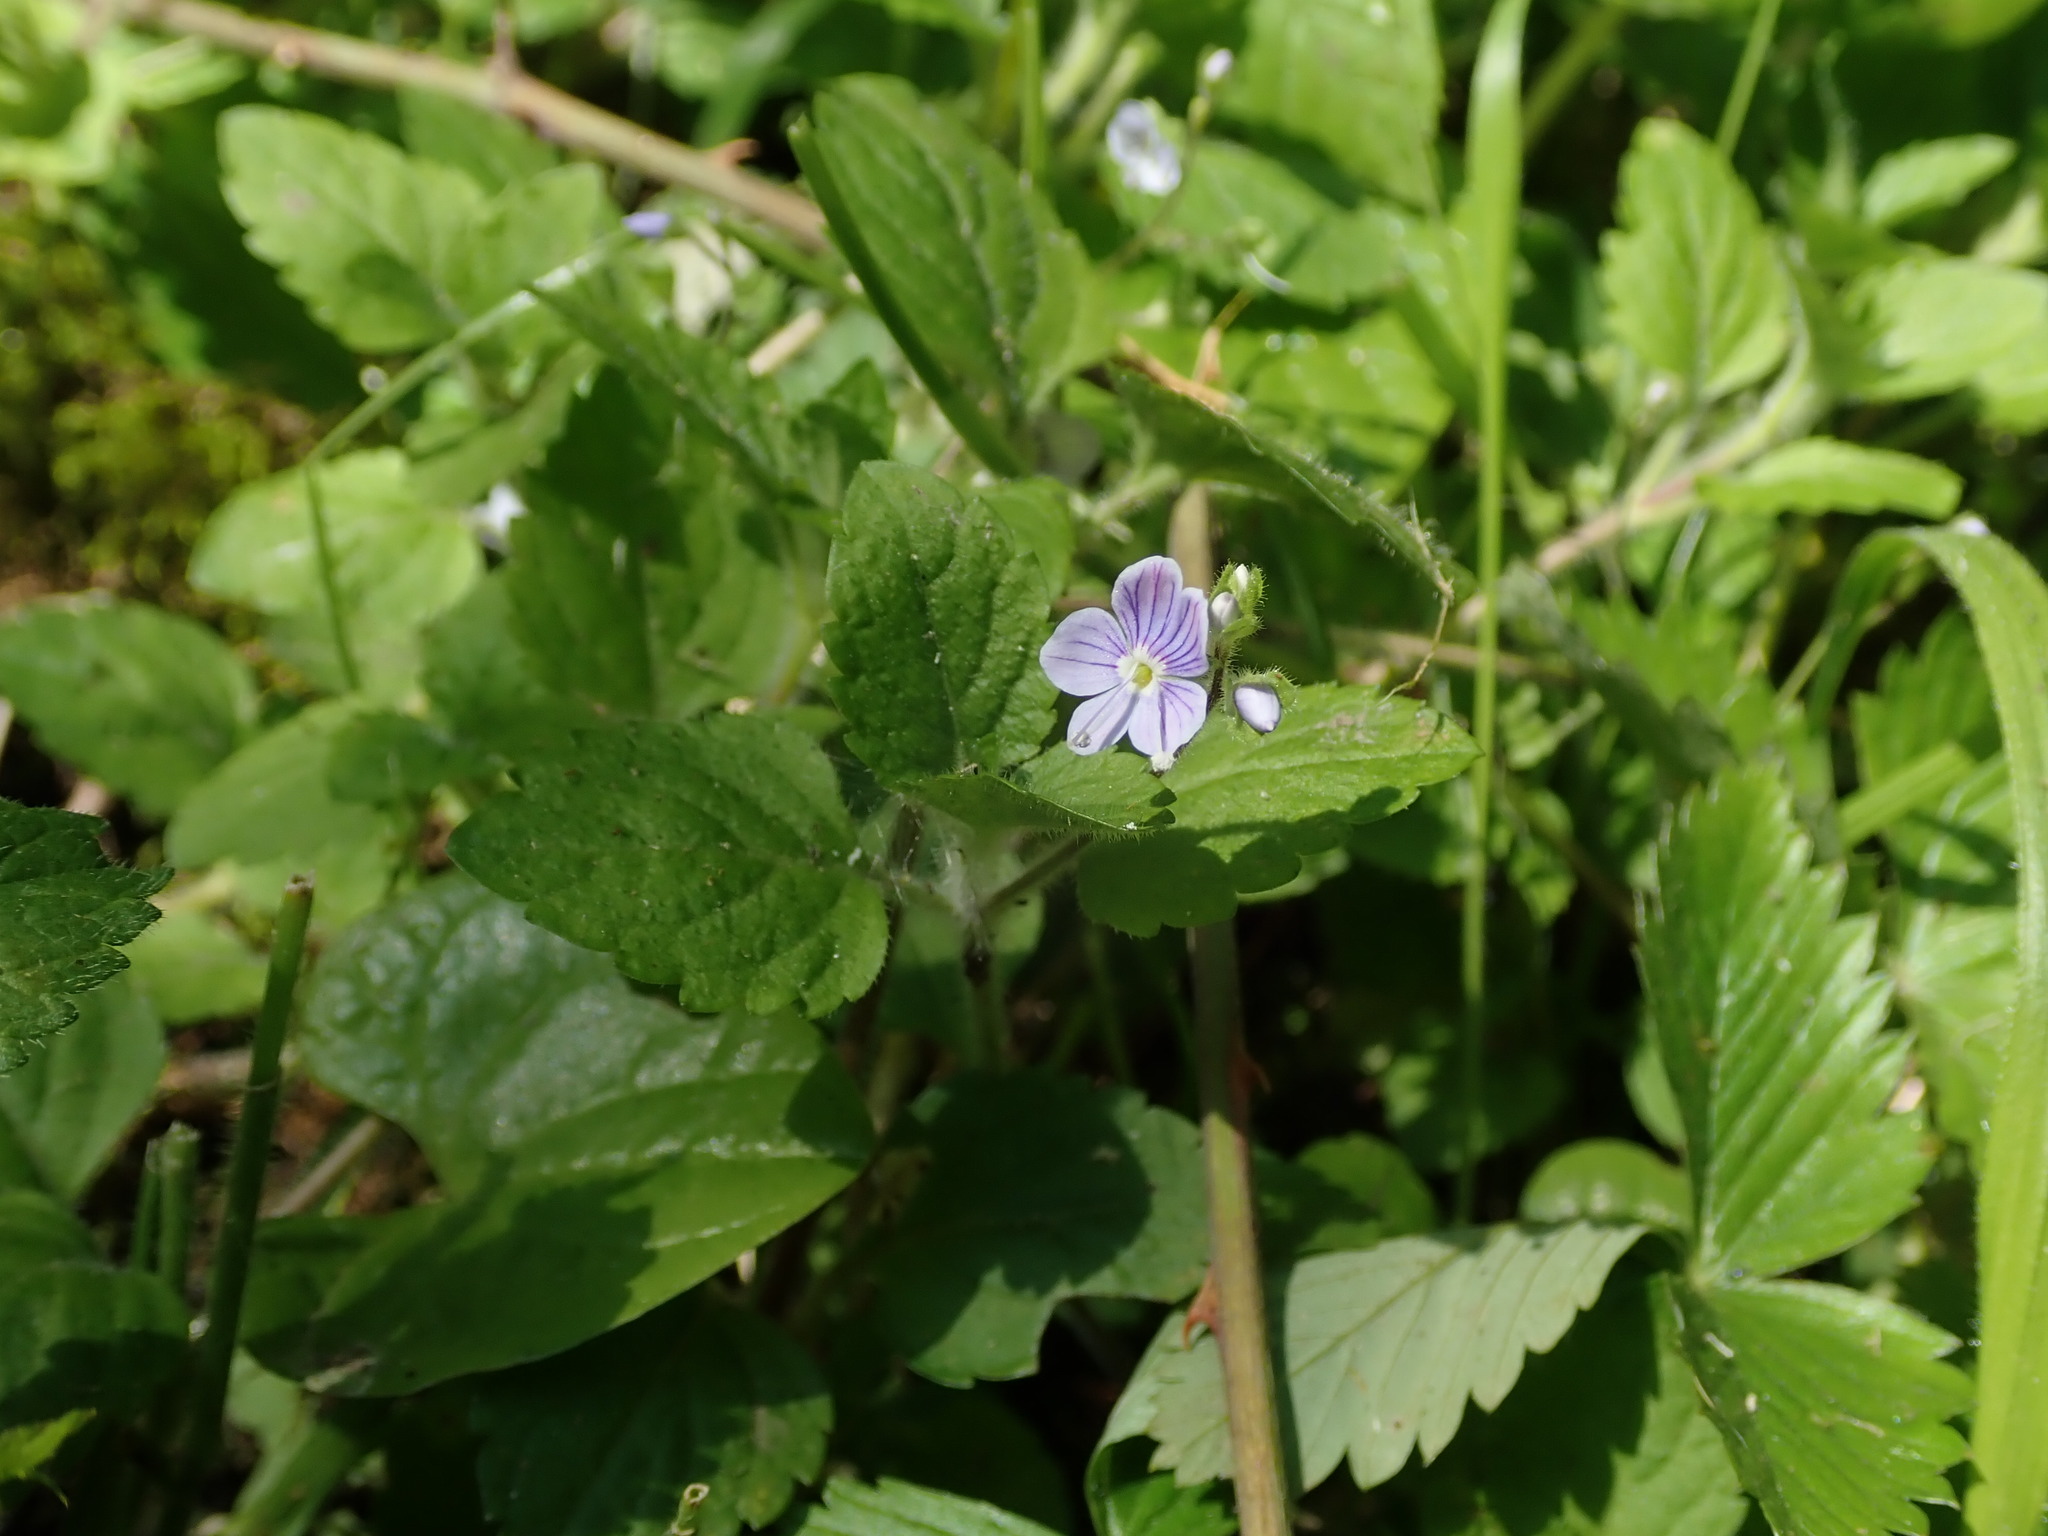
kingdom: Plantae
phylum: Tracheophyta
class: Magnoliopsida
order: Lamiales
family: Plantaginaceae
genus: Veronica
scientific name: Veronica montana
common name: Wood speedwell
